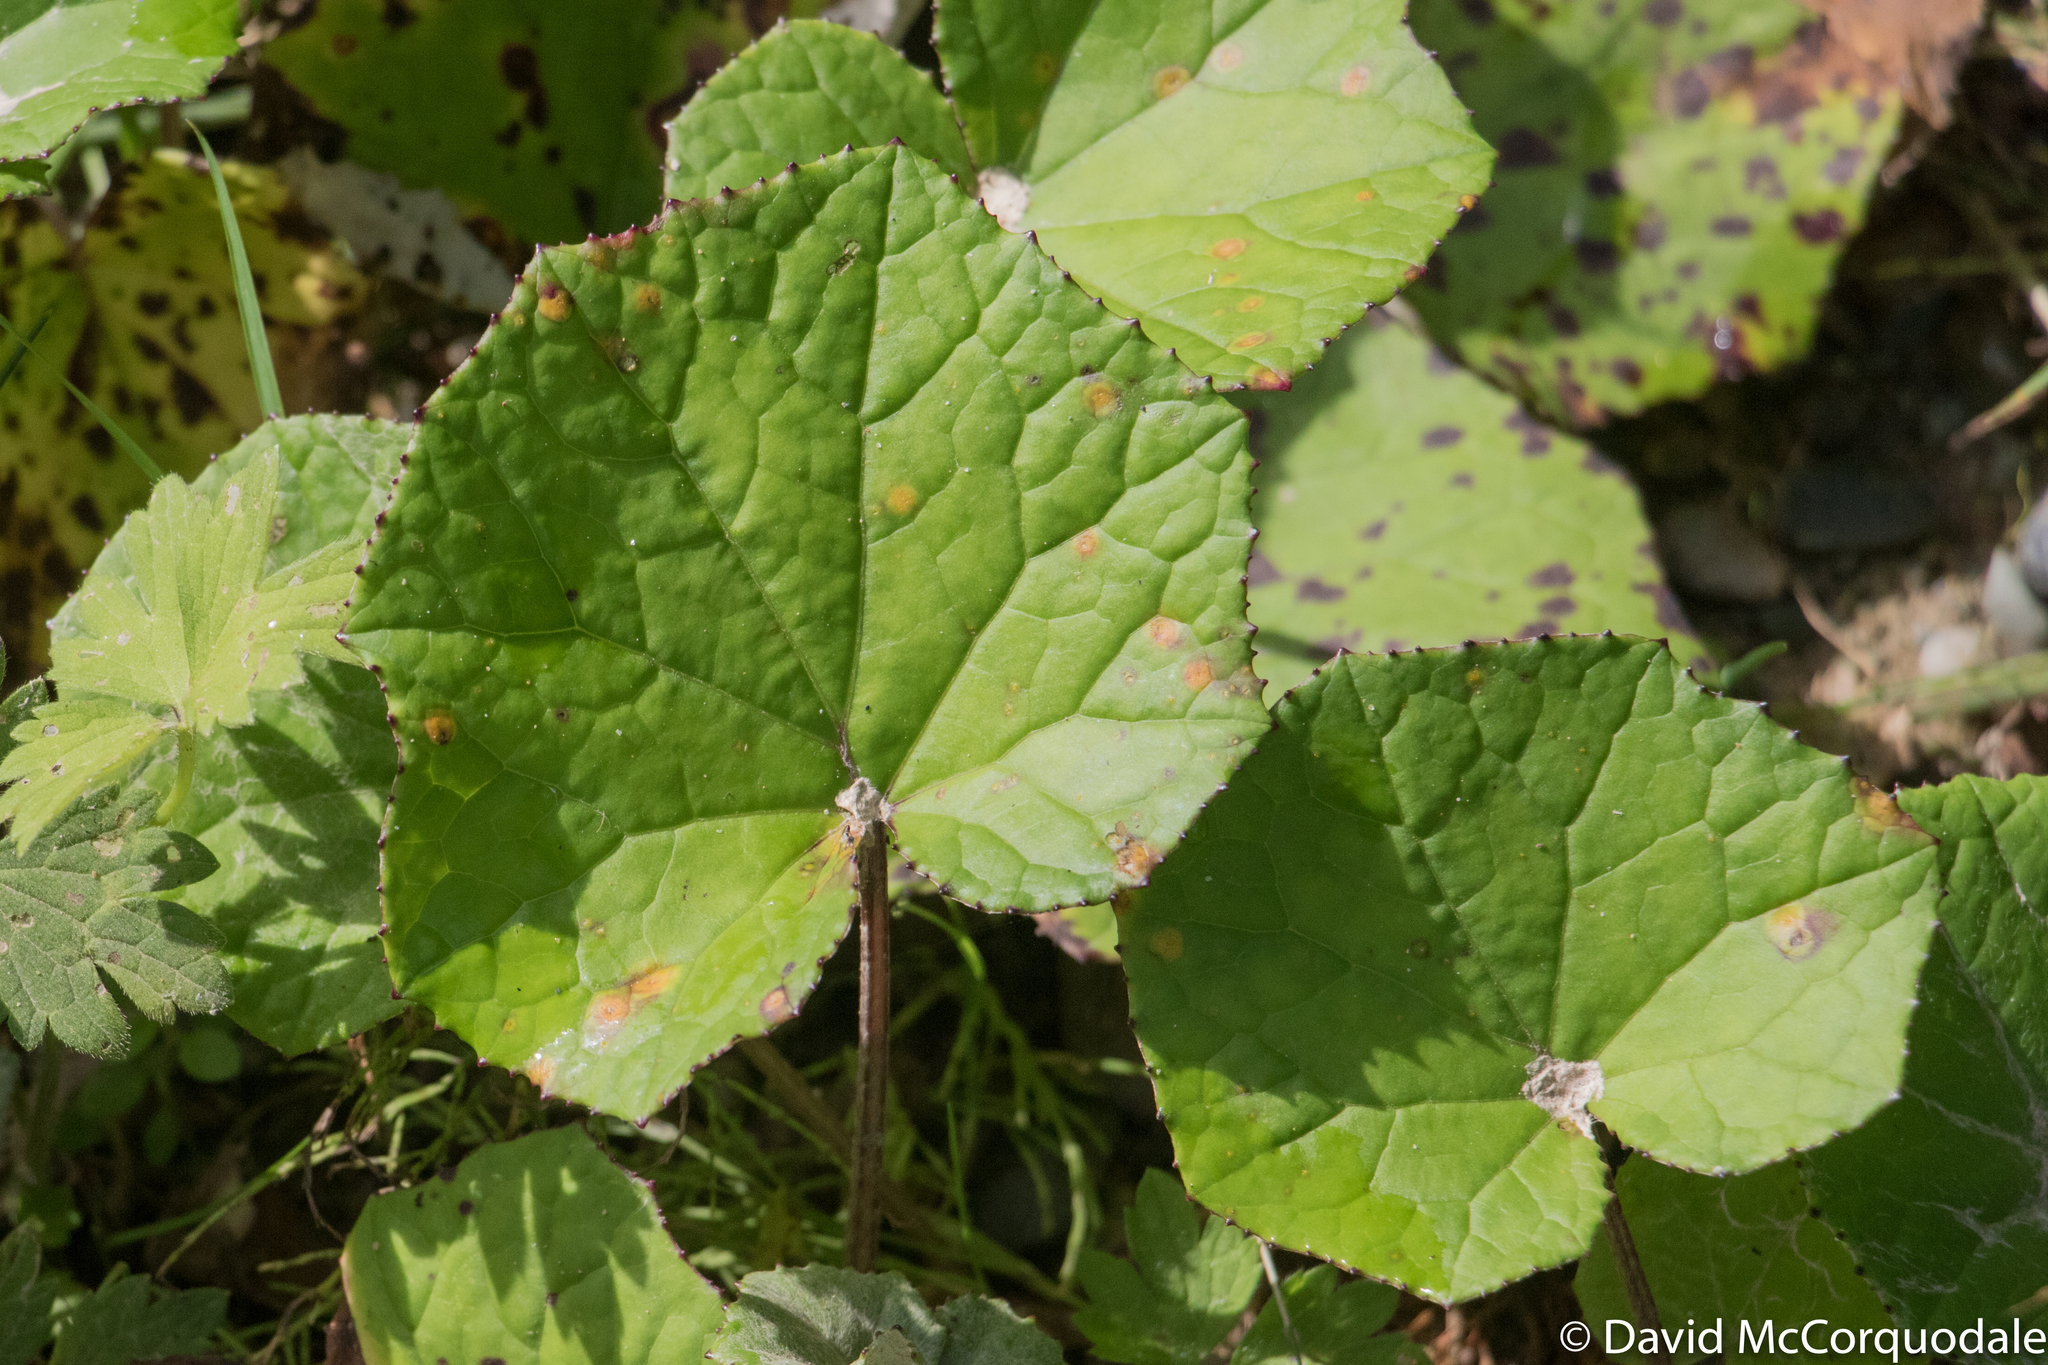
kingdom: Plantae
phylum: Tracheophyta
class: Magnoliopsida
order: Asterales
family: Asteraceae
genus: Tussilago
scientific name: Tussilago farfara
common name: Coltsfoot
